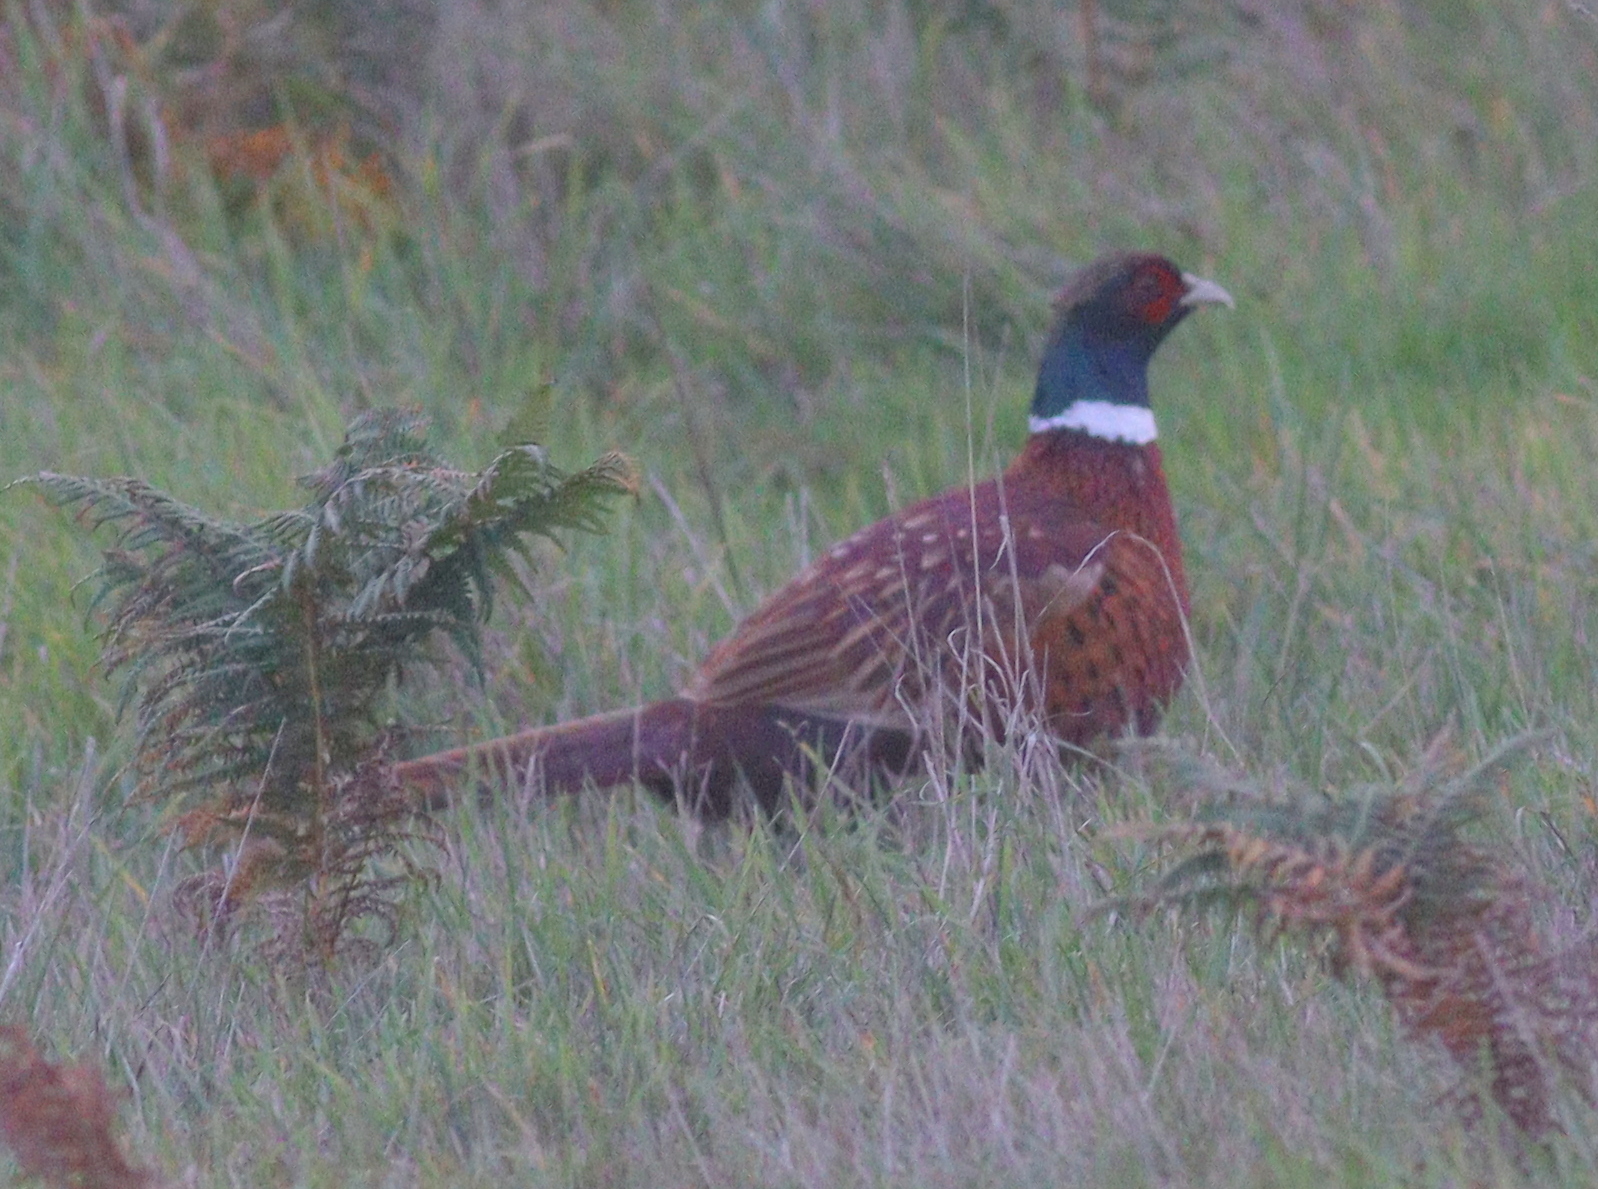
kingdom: Animalia
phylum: Chordata
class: Aves
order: Galliformes
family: Phasianidae
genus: Phasianus
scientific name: Phasianus colchicus
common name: Common pheasant
